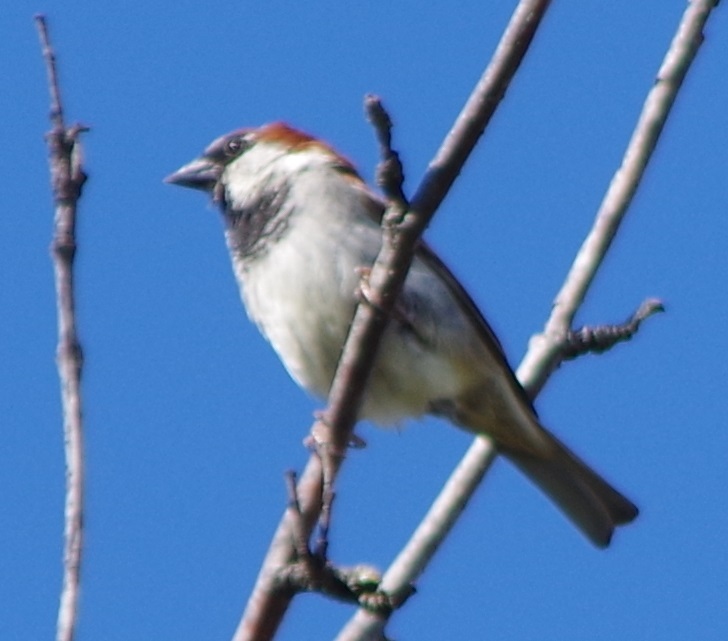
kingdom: Animalia
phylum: Chordata
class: Aves
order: Passeriformes
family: Passeridae
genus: Passer
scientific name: Passer domesticus
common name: House sparrow
